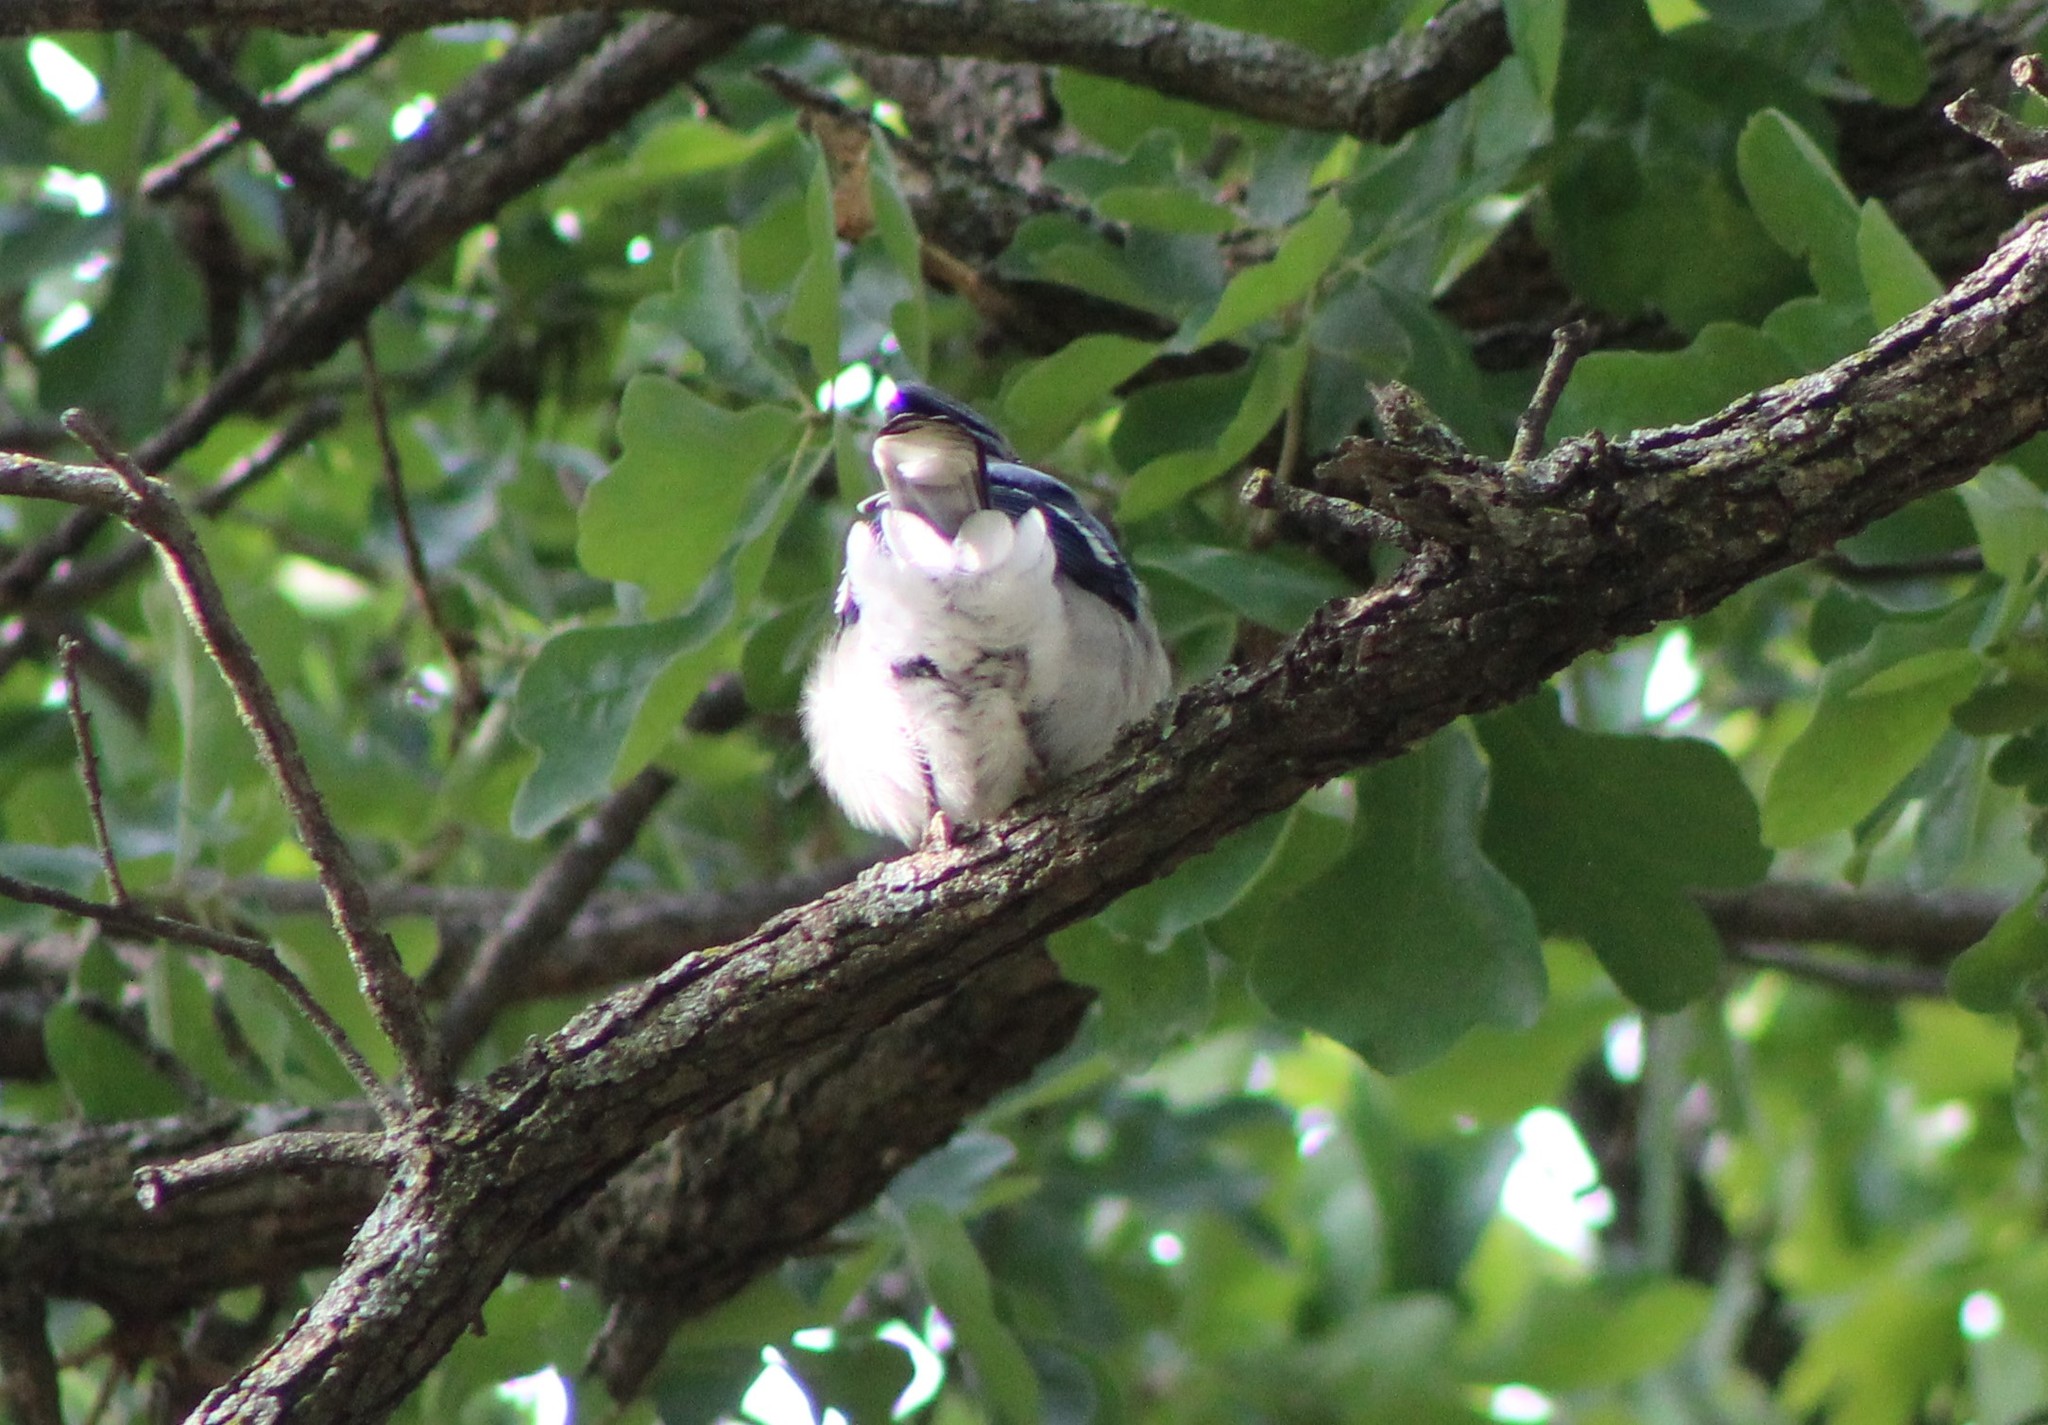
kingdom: Animalia
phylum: Chordata
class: Aves
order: Passeriformes
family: Corvidae
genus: Cyanocitta
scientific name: Cyanocitta cristata
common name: Blue jay
